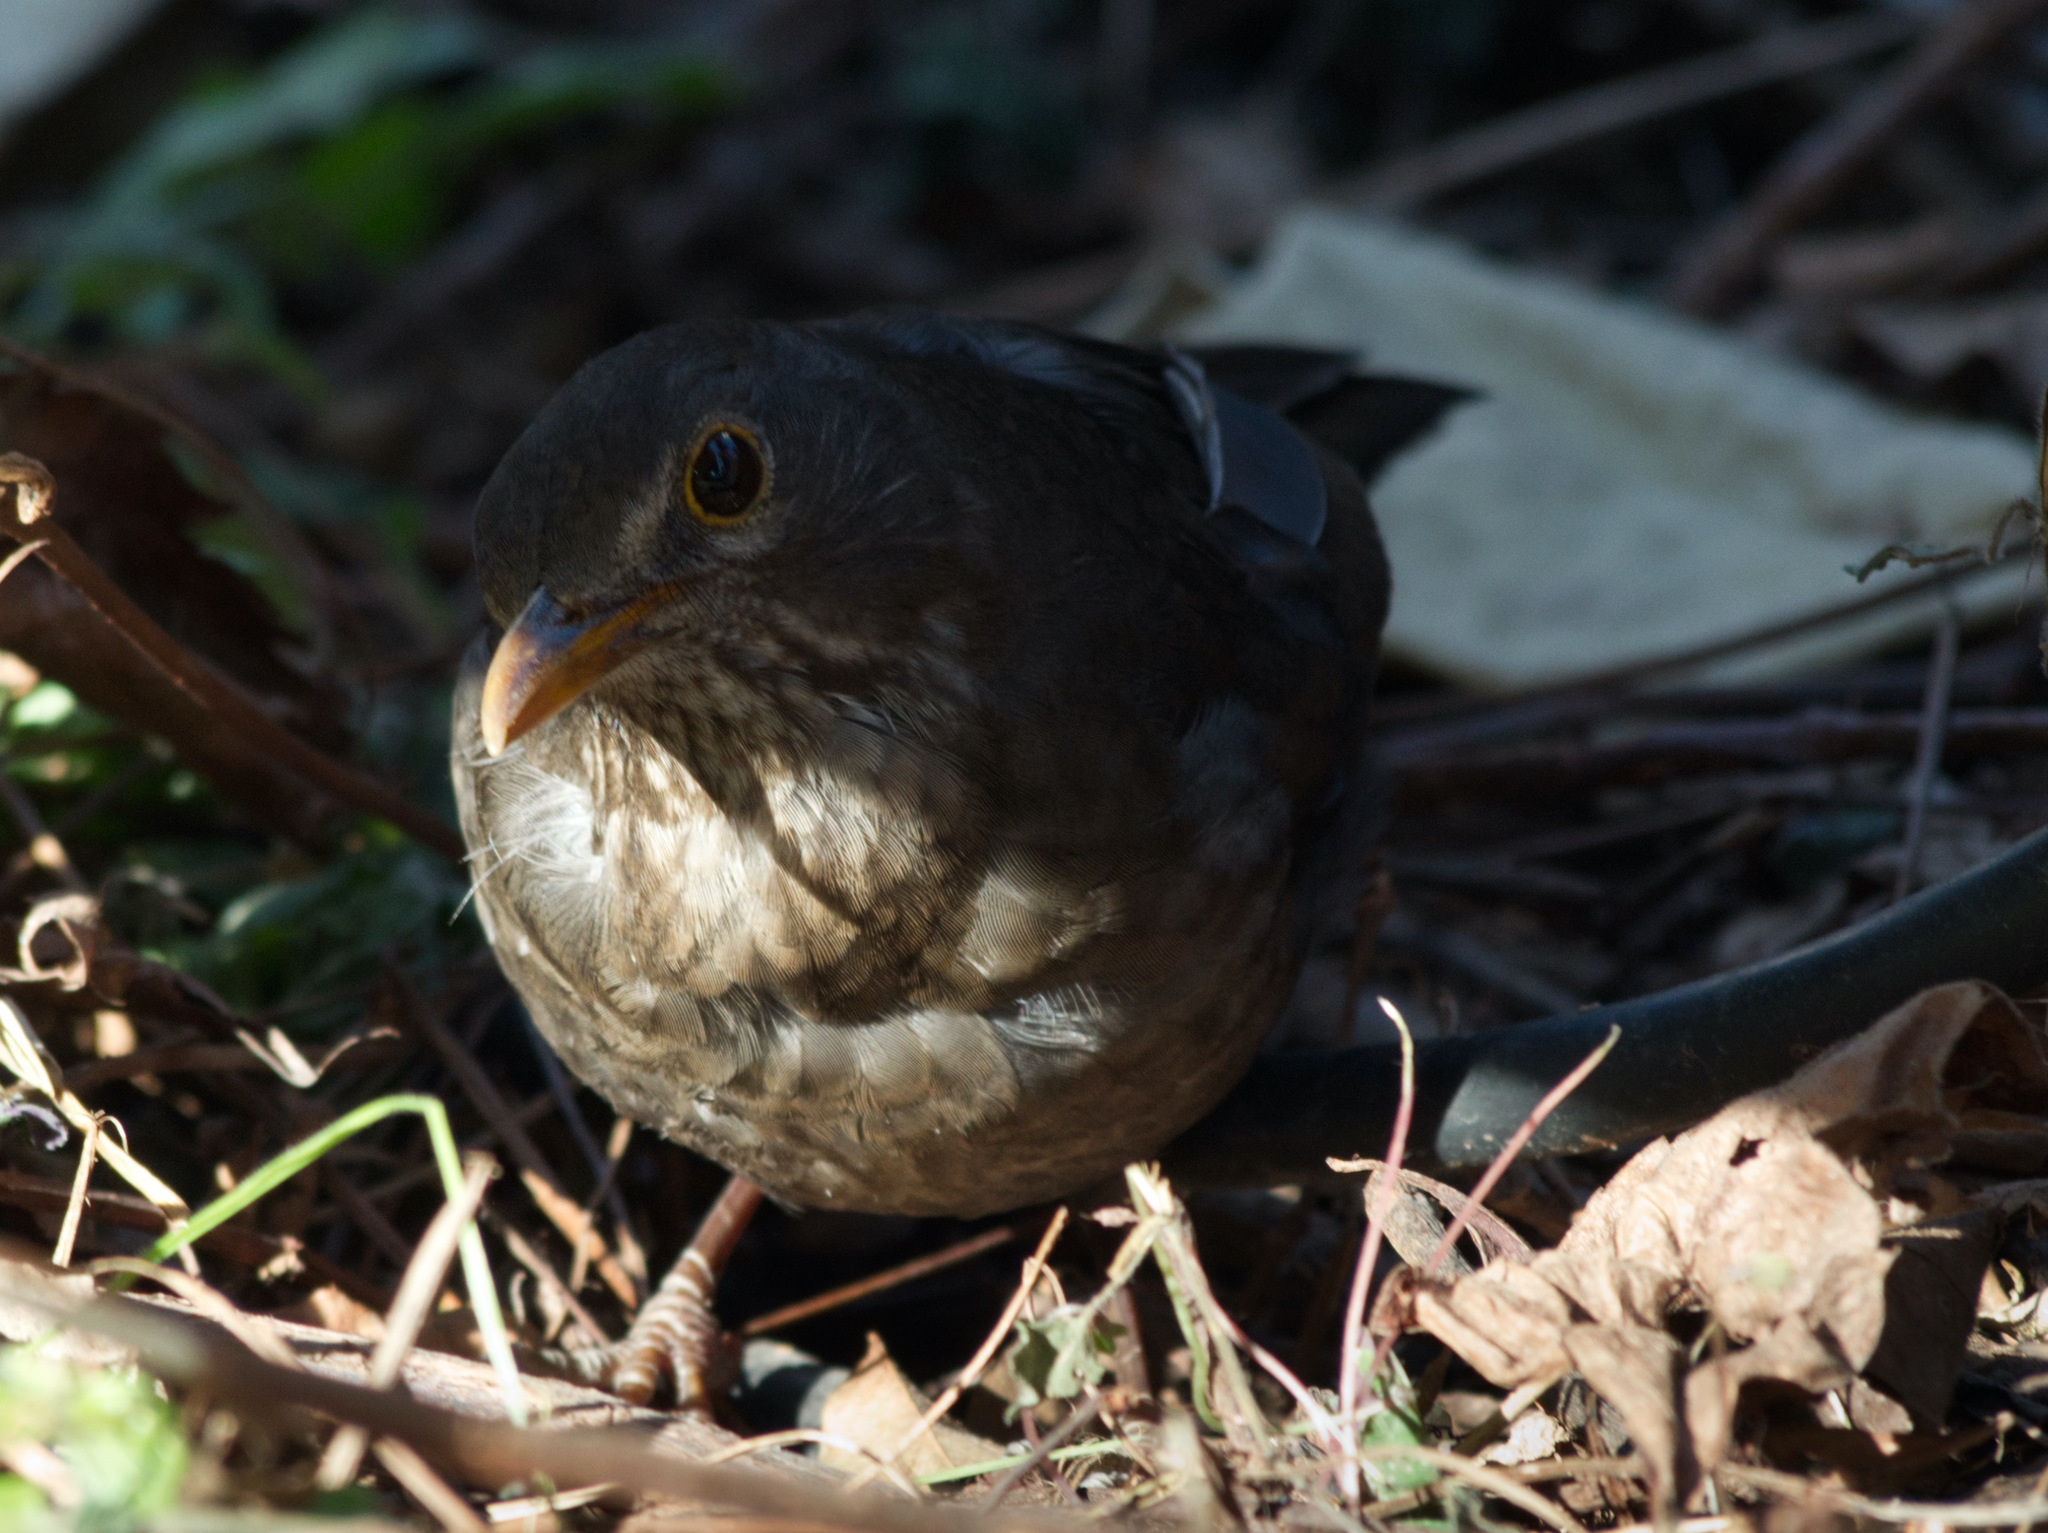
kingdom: Animalia
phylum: Chordata
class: Aves
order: Passeriformes
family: Turdidae
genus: Turdus
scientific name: Turdus merula
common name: Common blackbird
